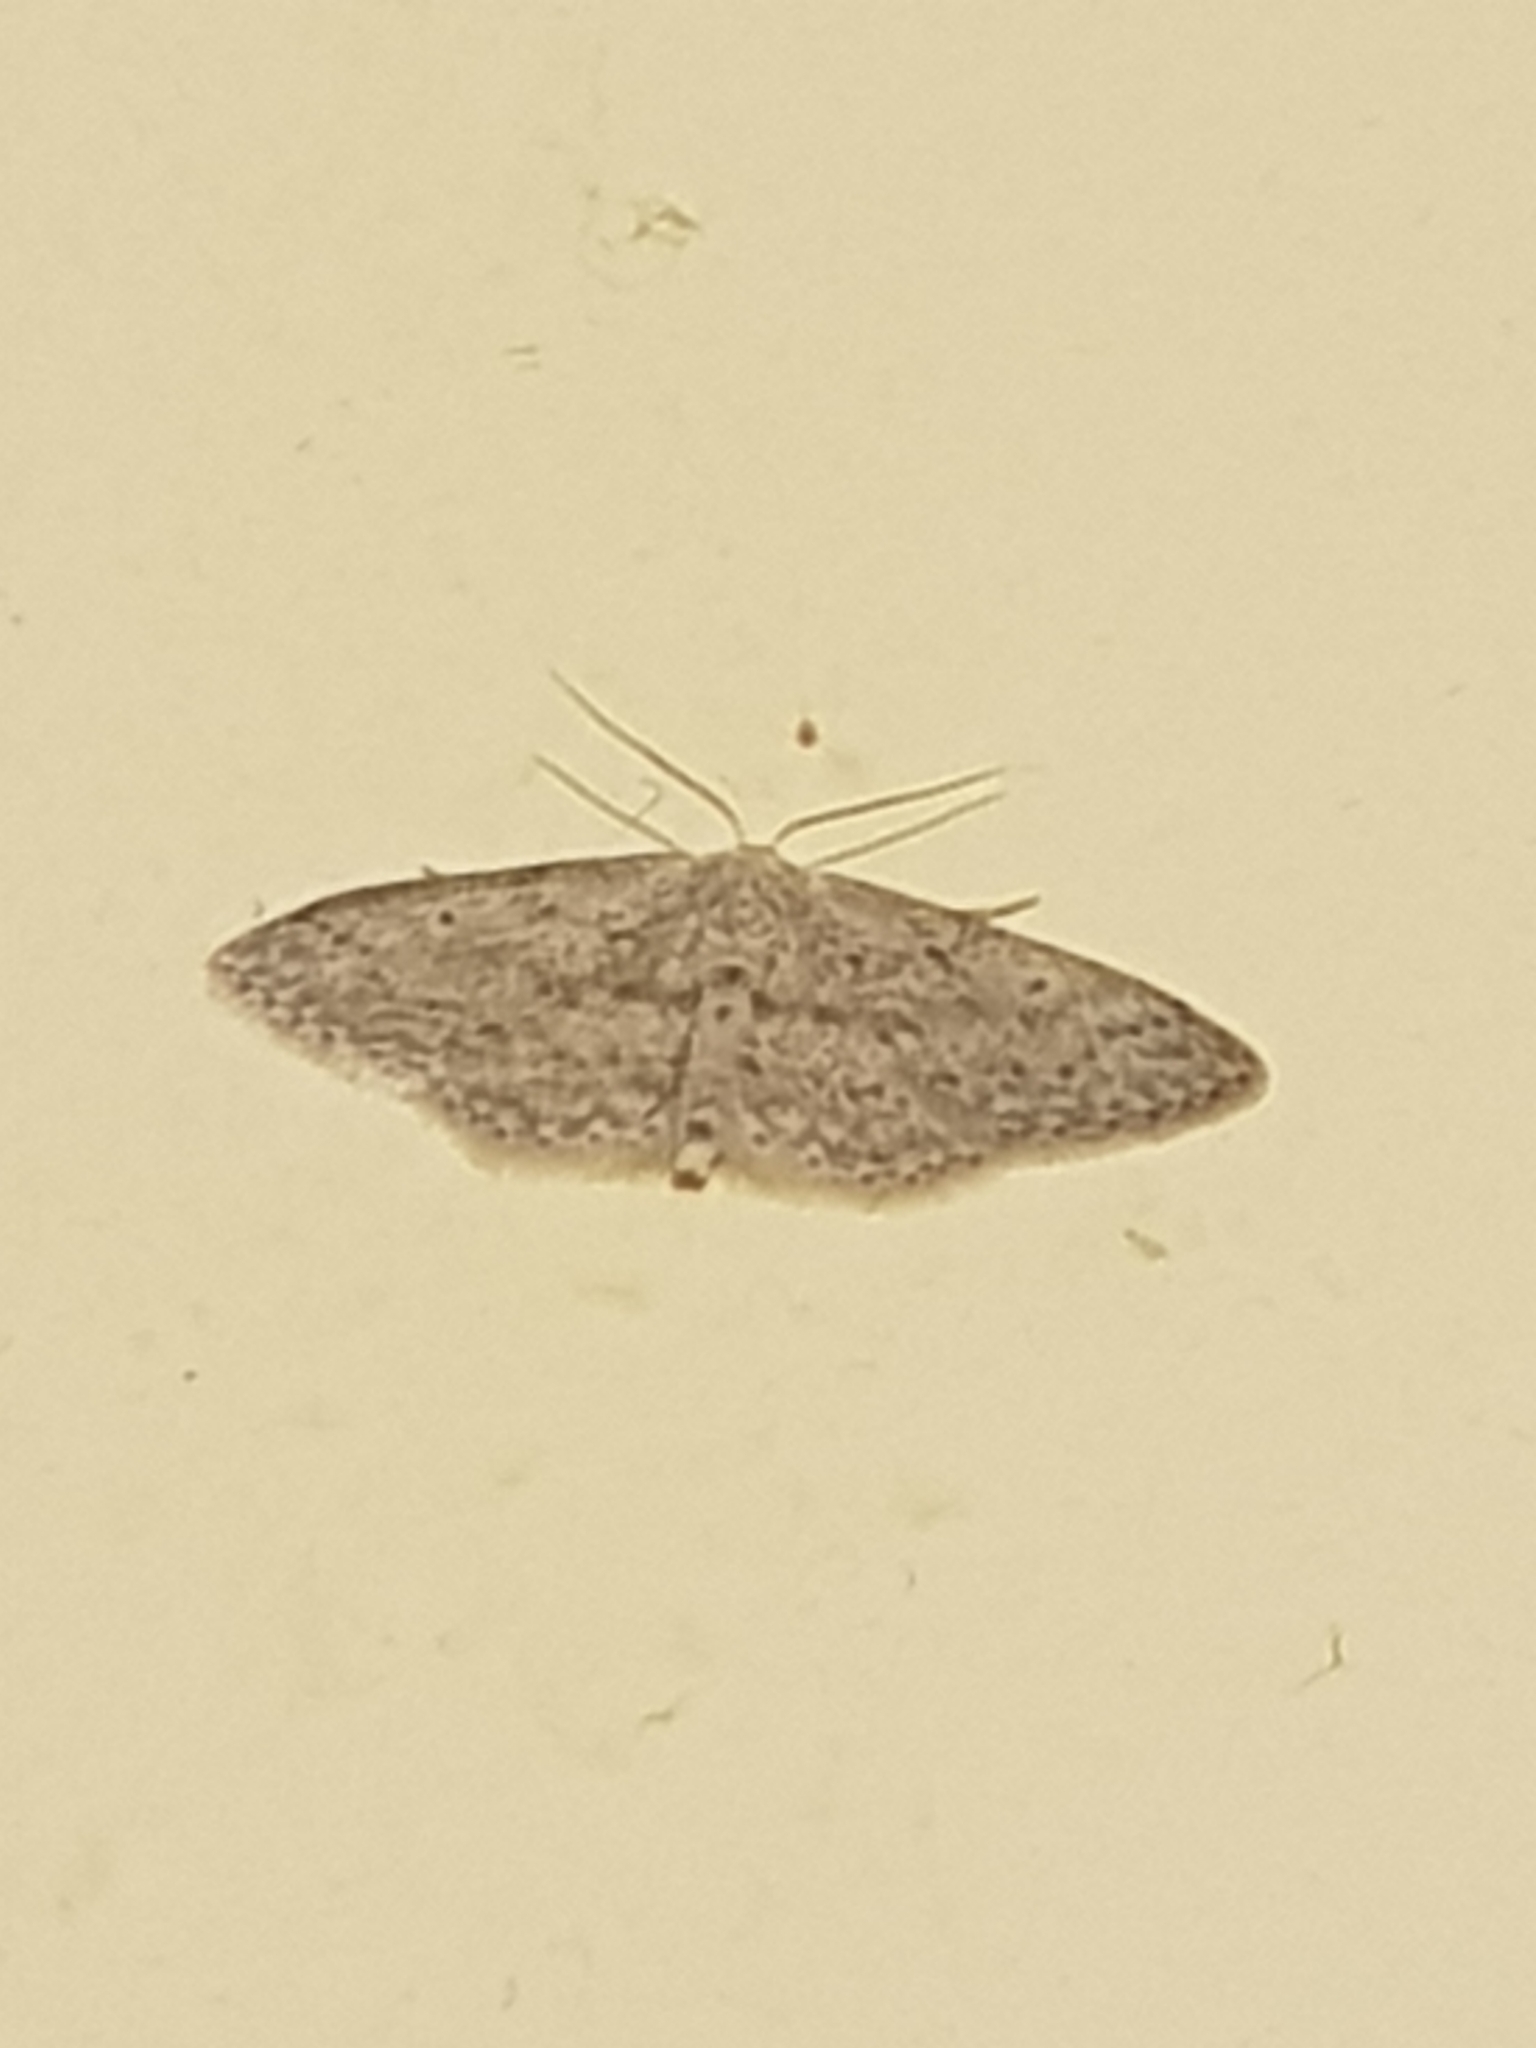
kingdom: Animalia
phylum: Arthropoda
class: Insecta
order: Lepidoptera
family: Geometridae
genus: Idaea
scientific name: Idaea seriata
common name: Small dusty wave
